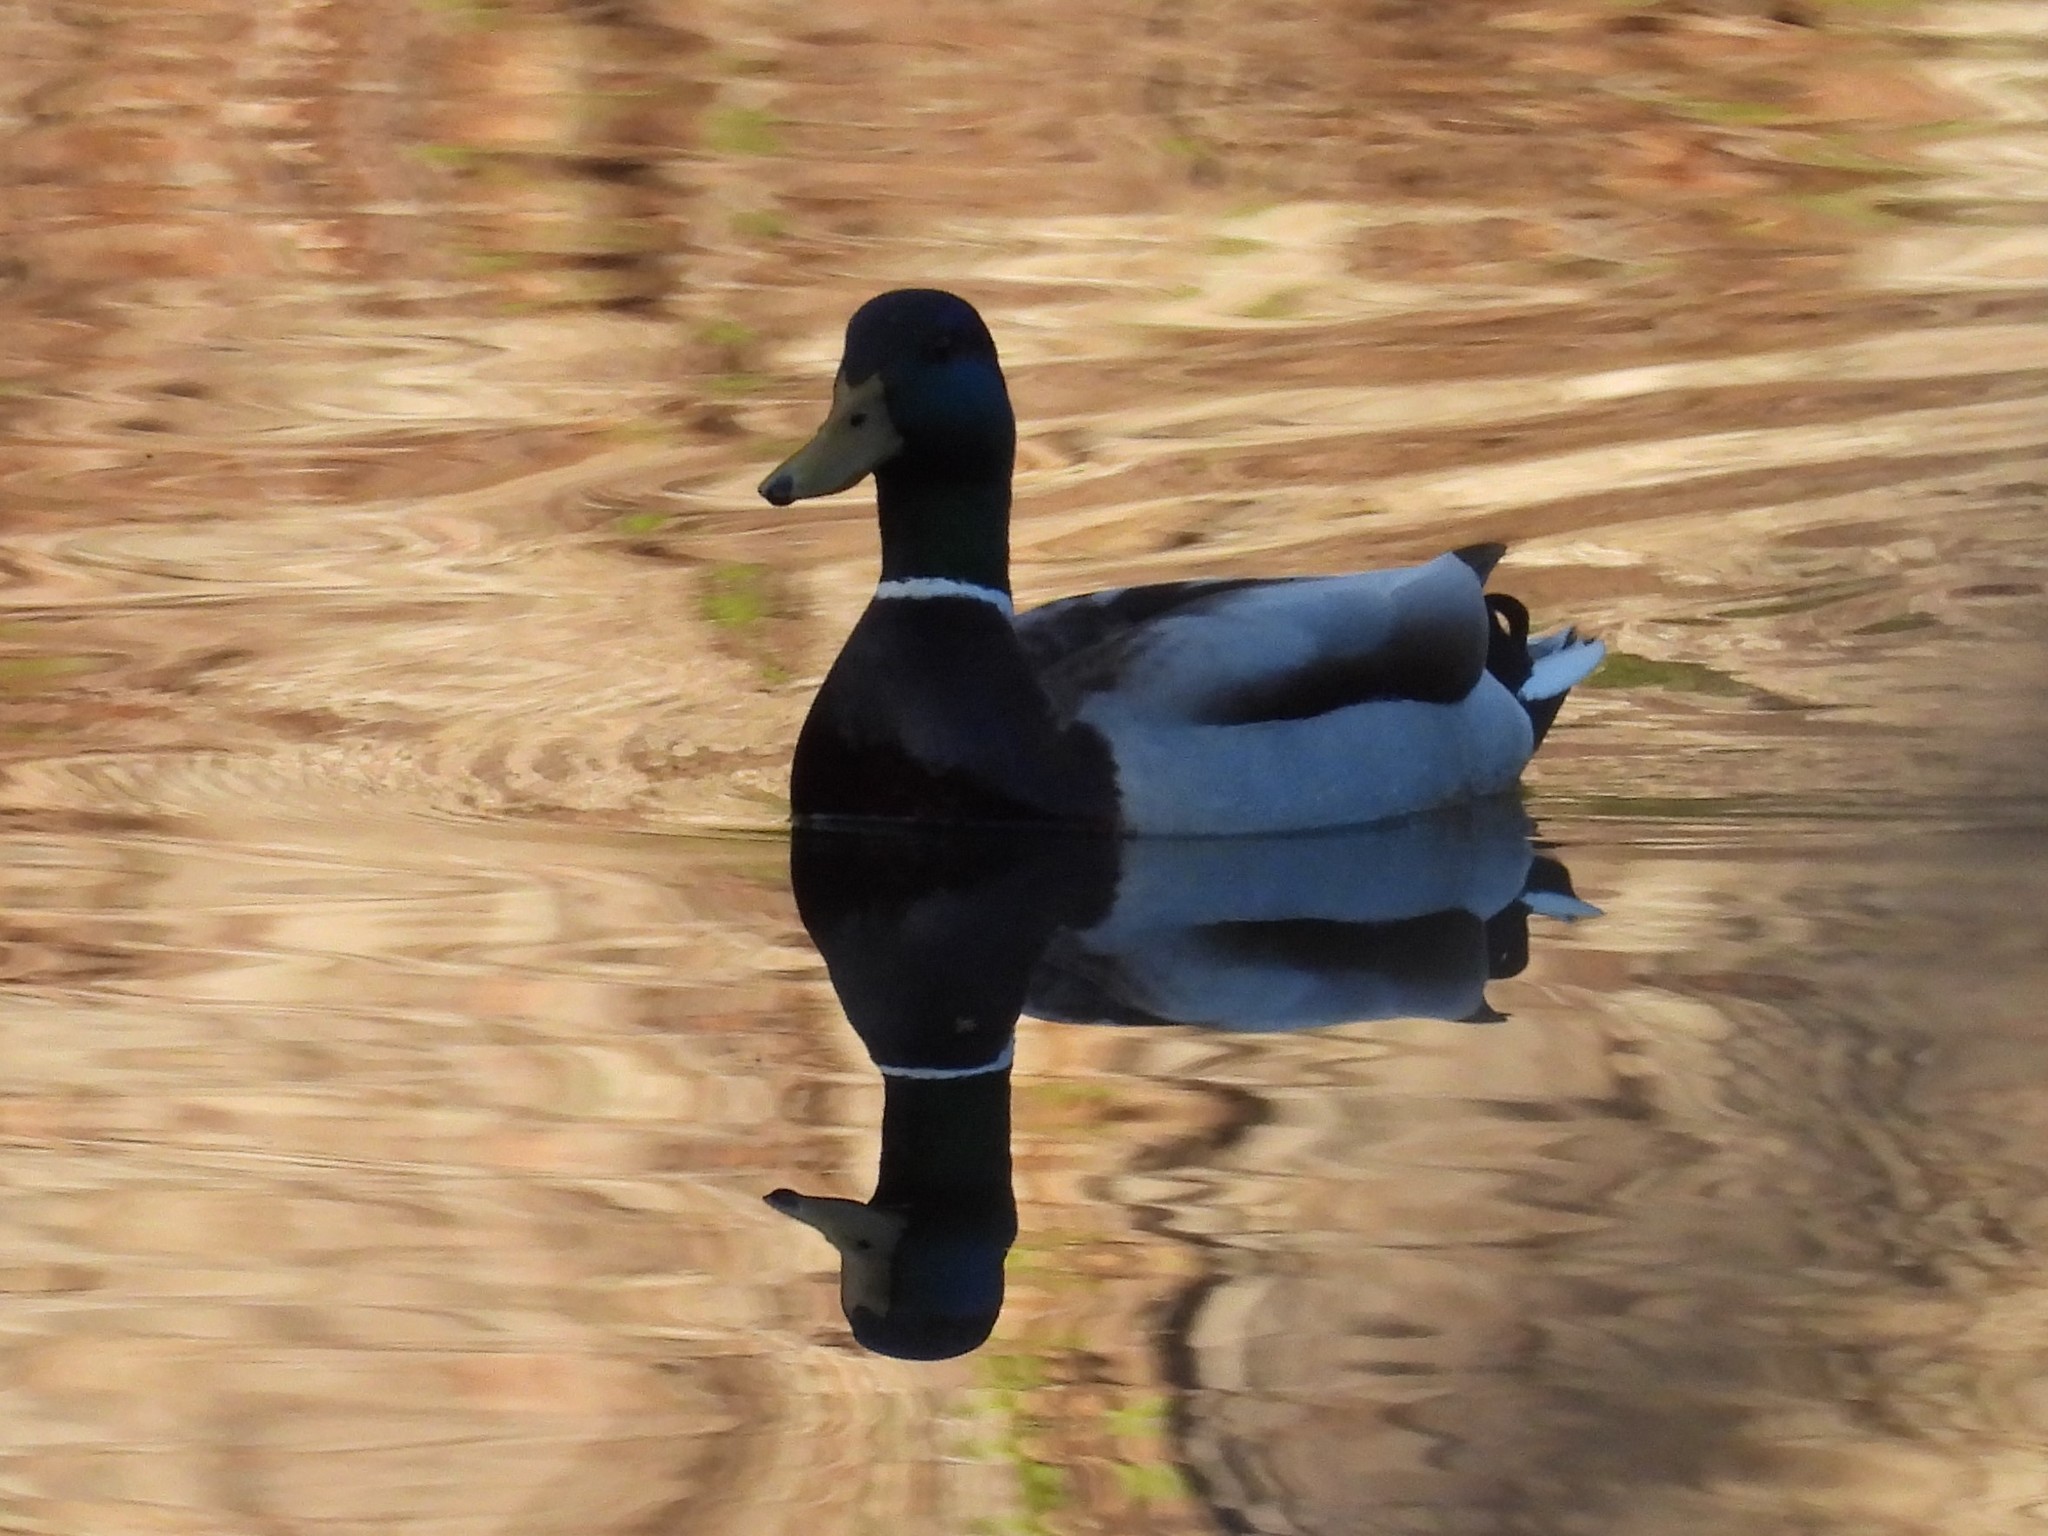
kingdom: Animalia
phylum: Chordata
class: Aves
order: Anseriformes
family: Anatidae
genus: Anas
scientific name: Anas platyrhynchos
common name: Mallard
